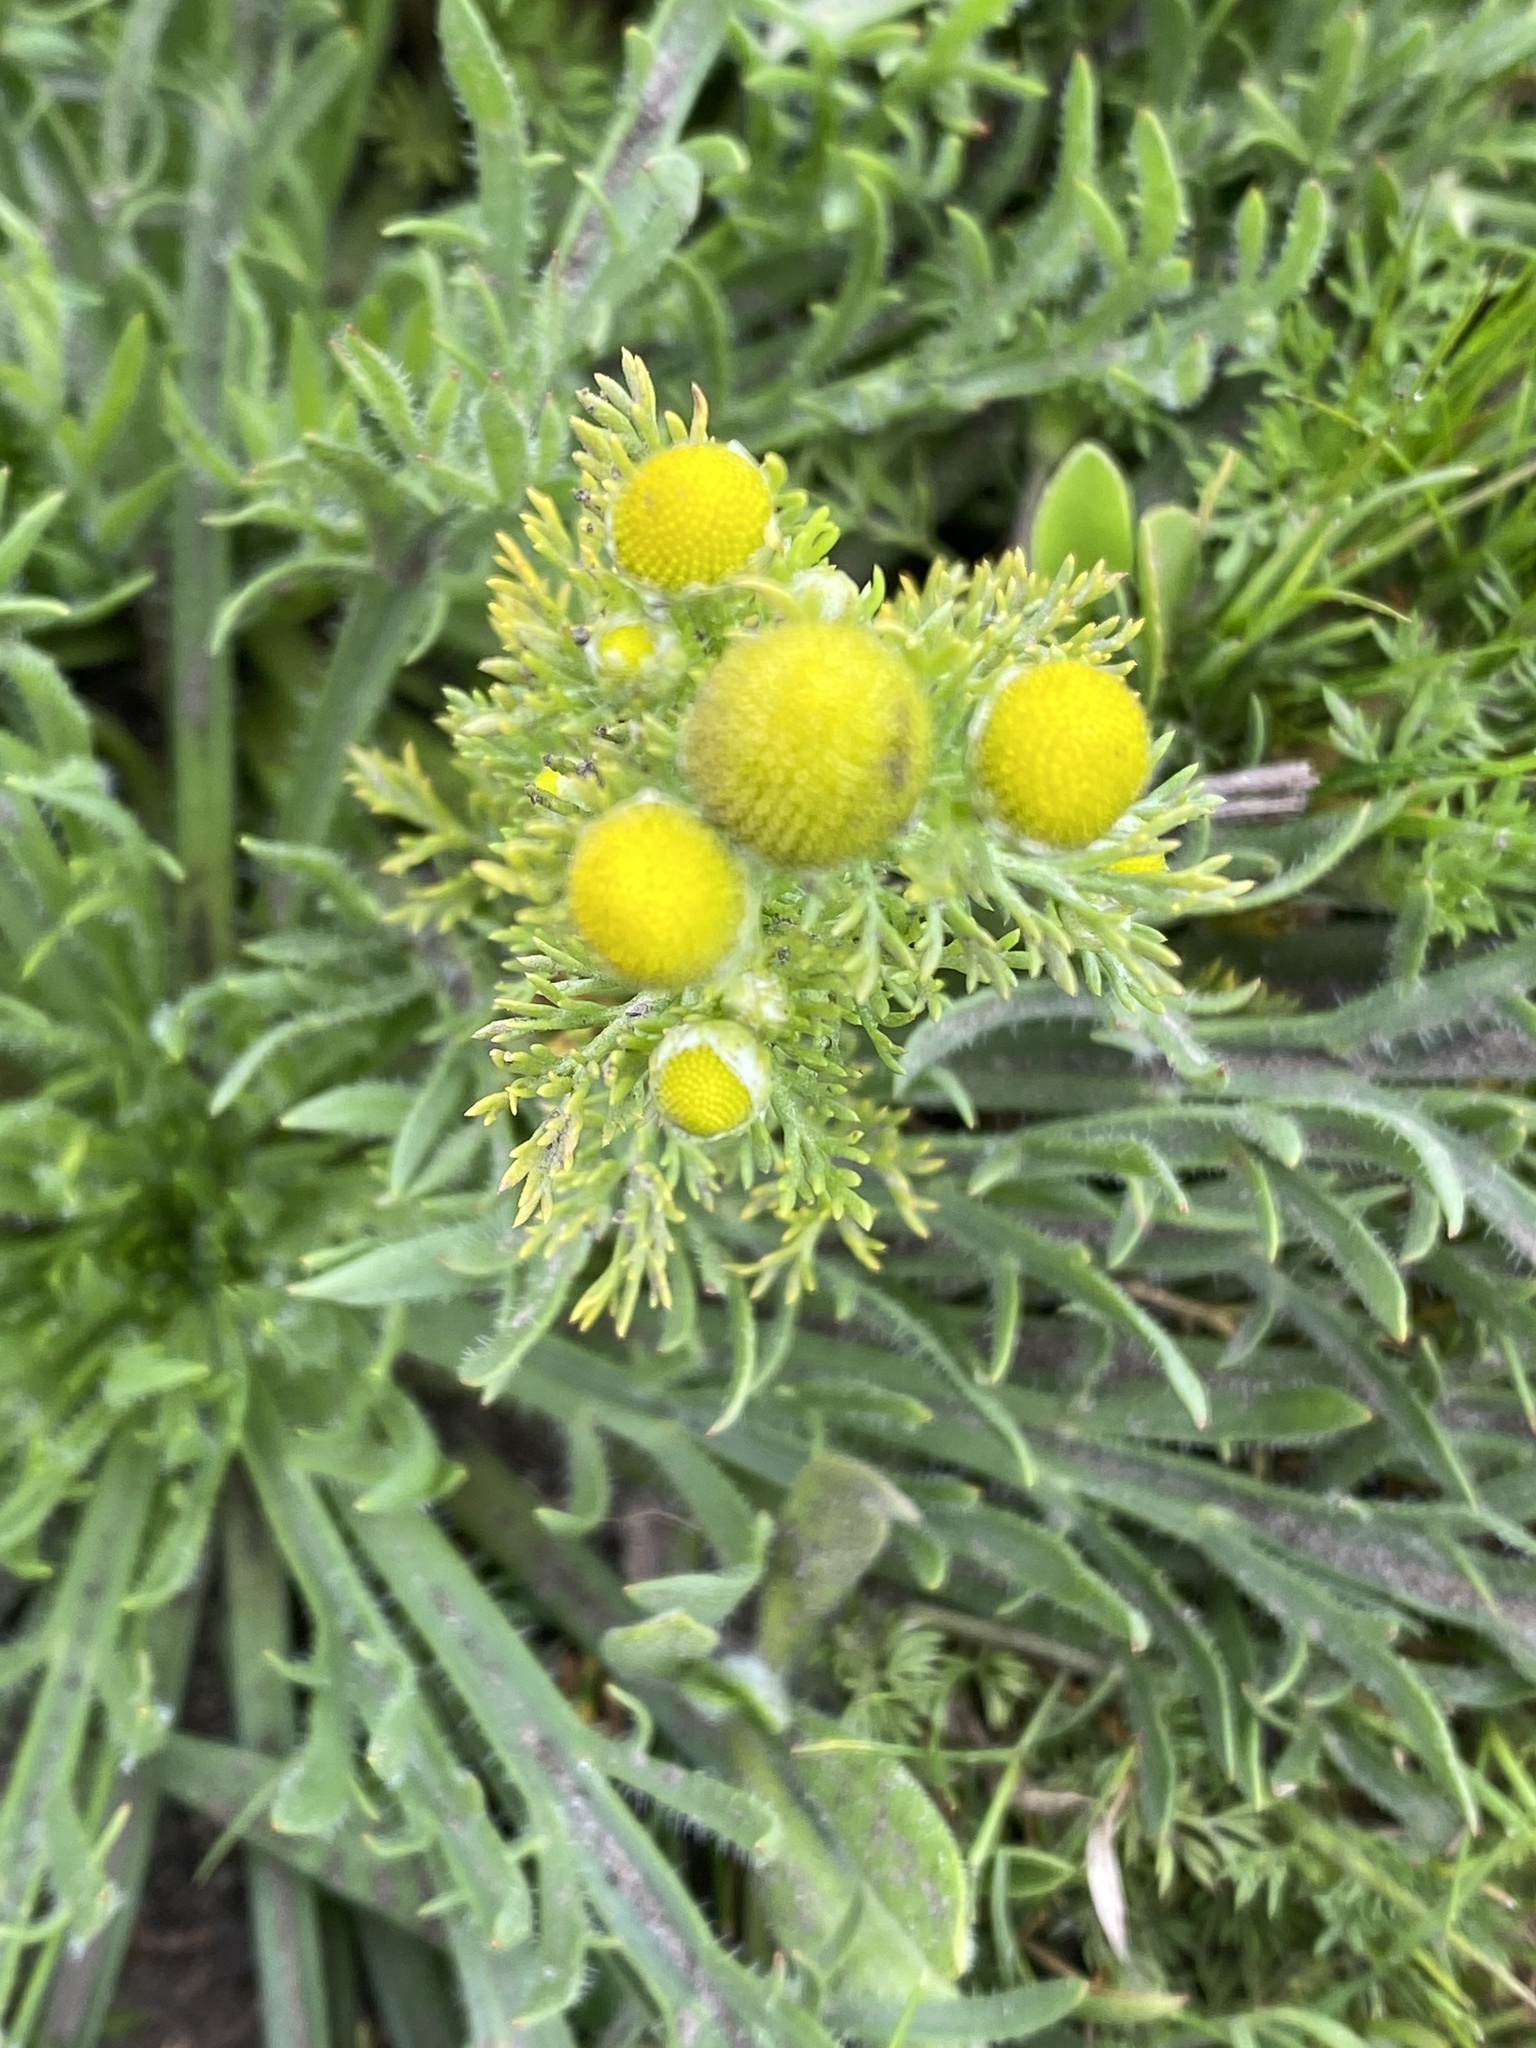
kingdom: Plantae
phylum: Tracheophyta
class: Magnoliopsida
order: Asterales
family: Asteraceae
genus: Matricaria
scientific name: Matricaria discoidea
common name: Disc mayweed
